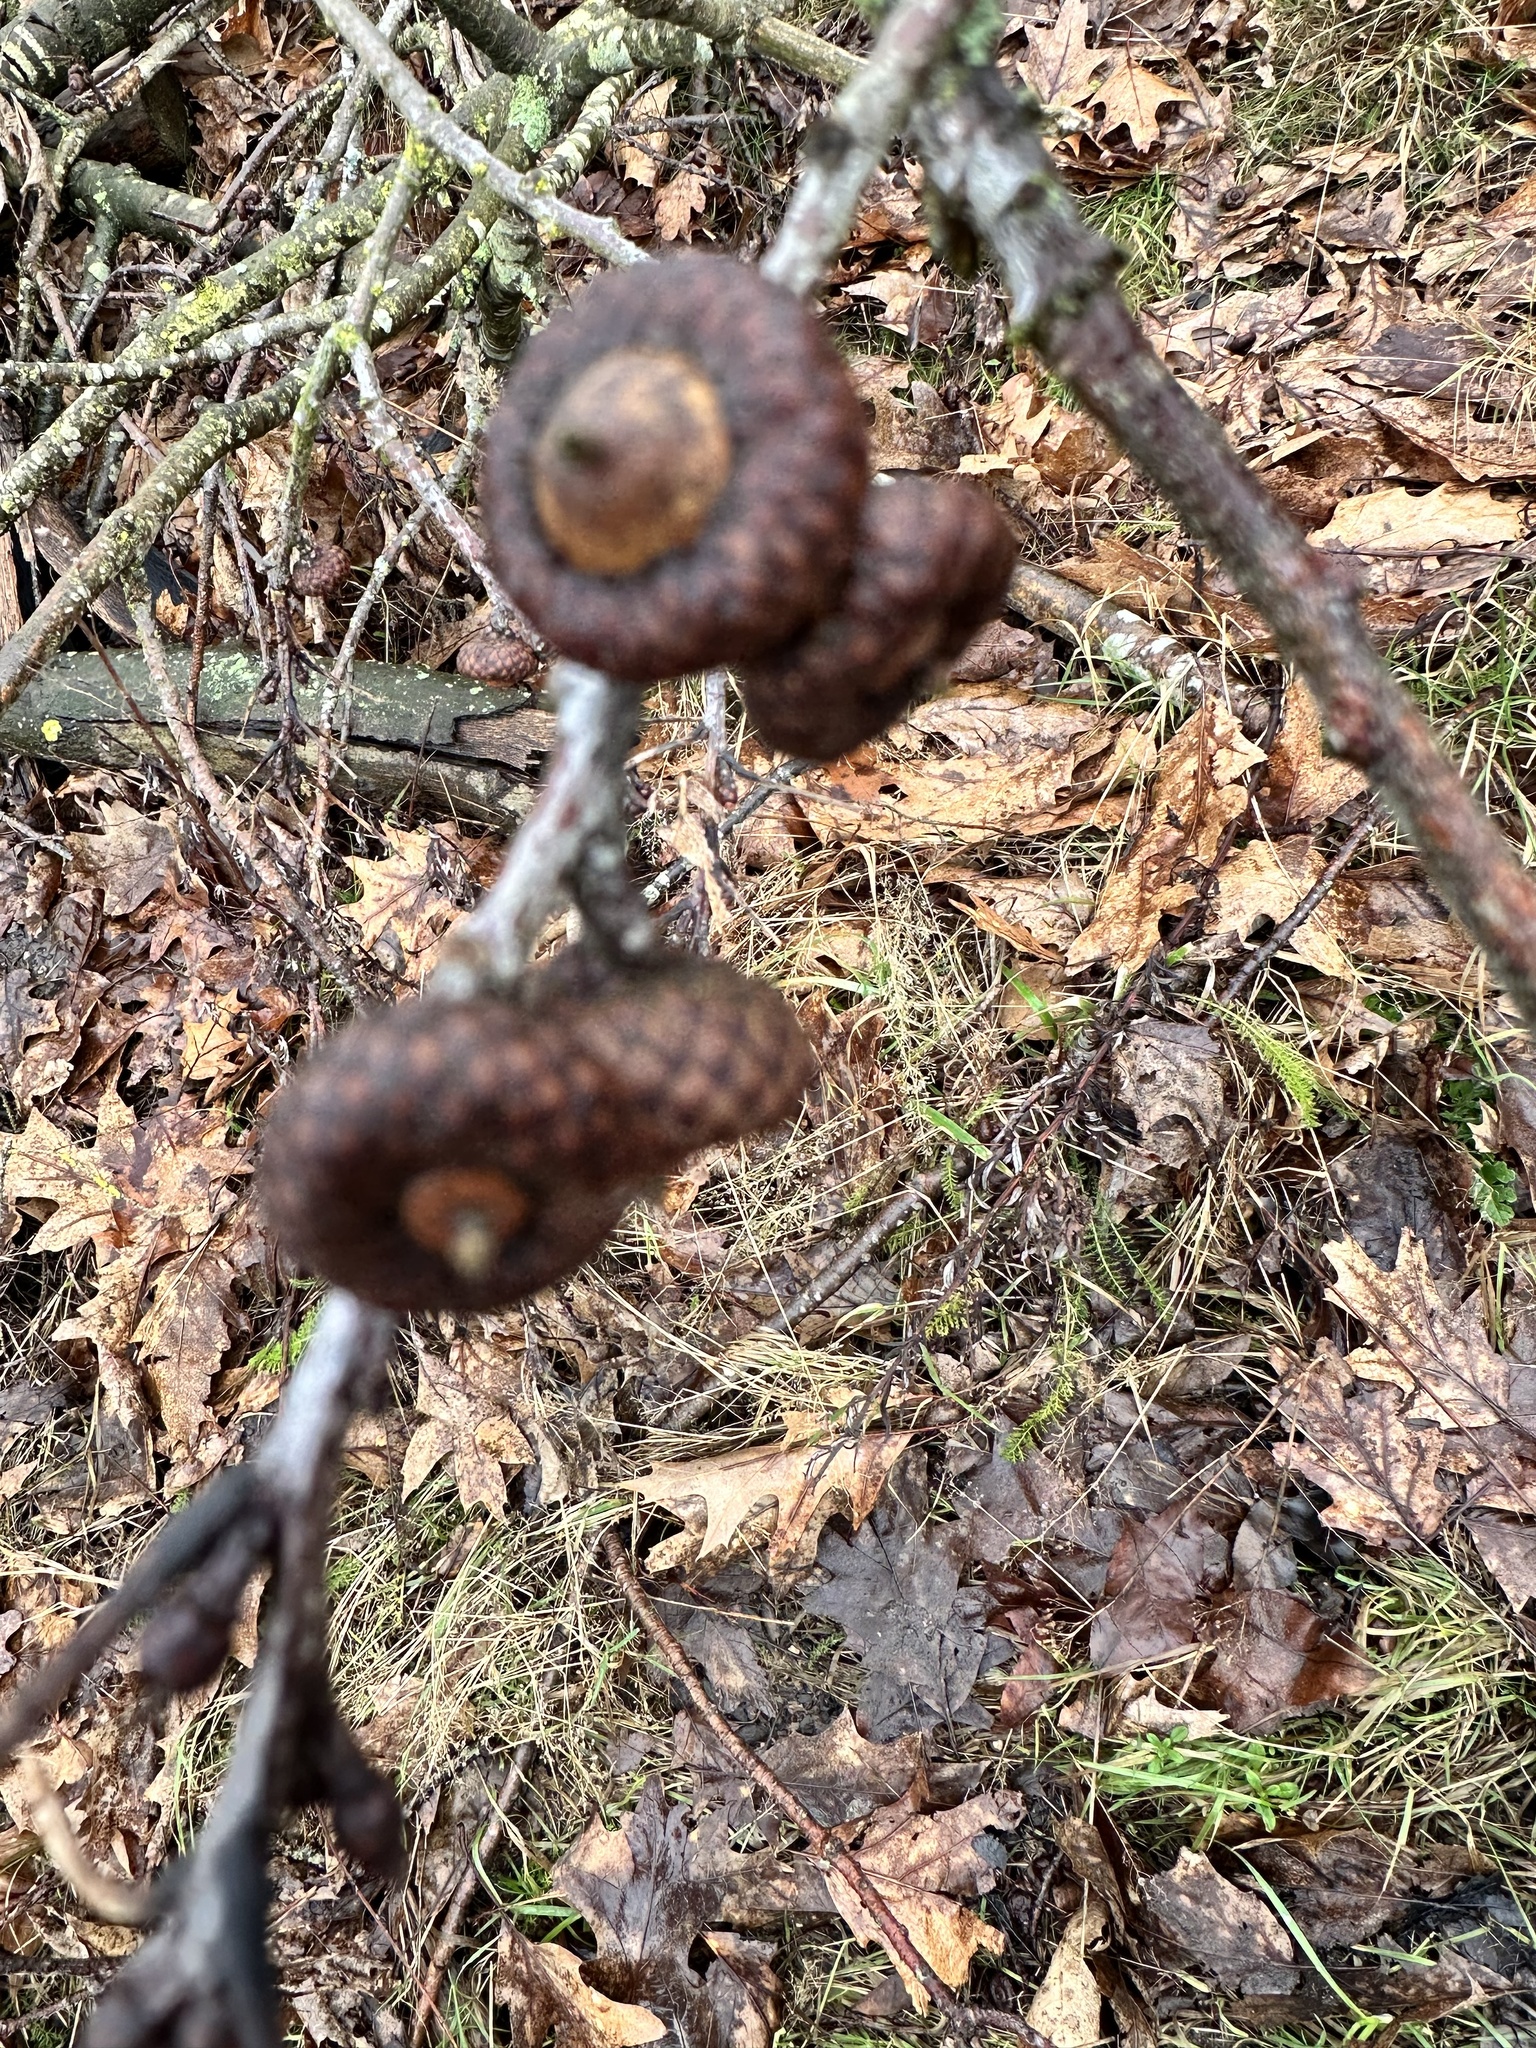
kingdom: Plantae
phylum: Tracheophyta
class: Magnoliopsida
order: Fagales
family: Fagaceae
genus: Quercus
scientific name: Quercus rubra
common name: Red oak
